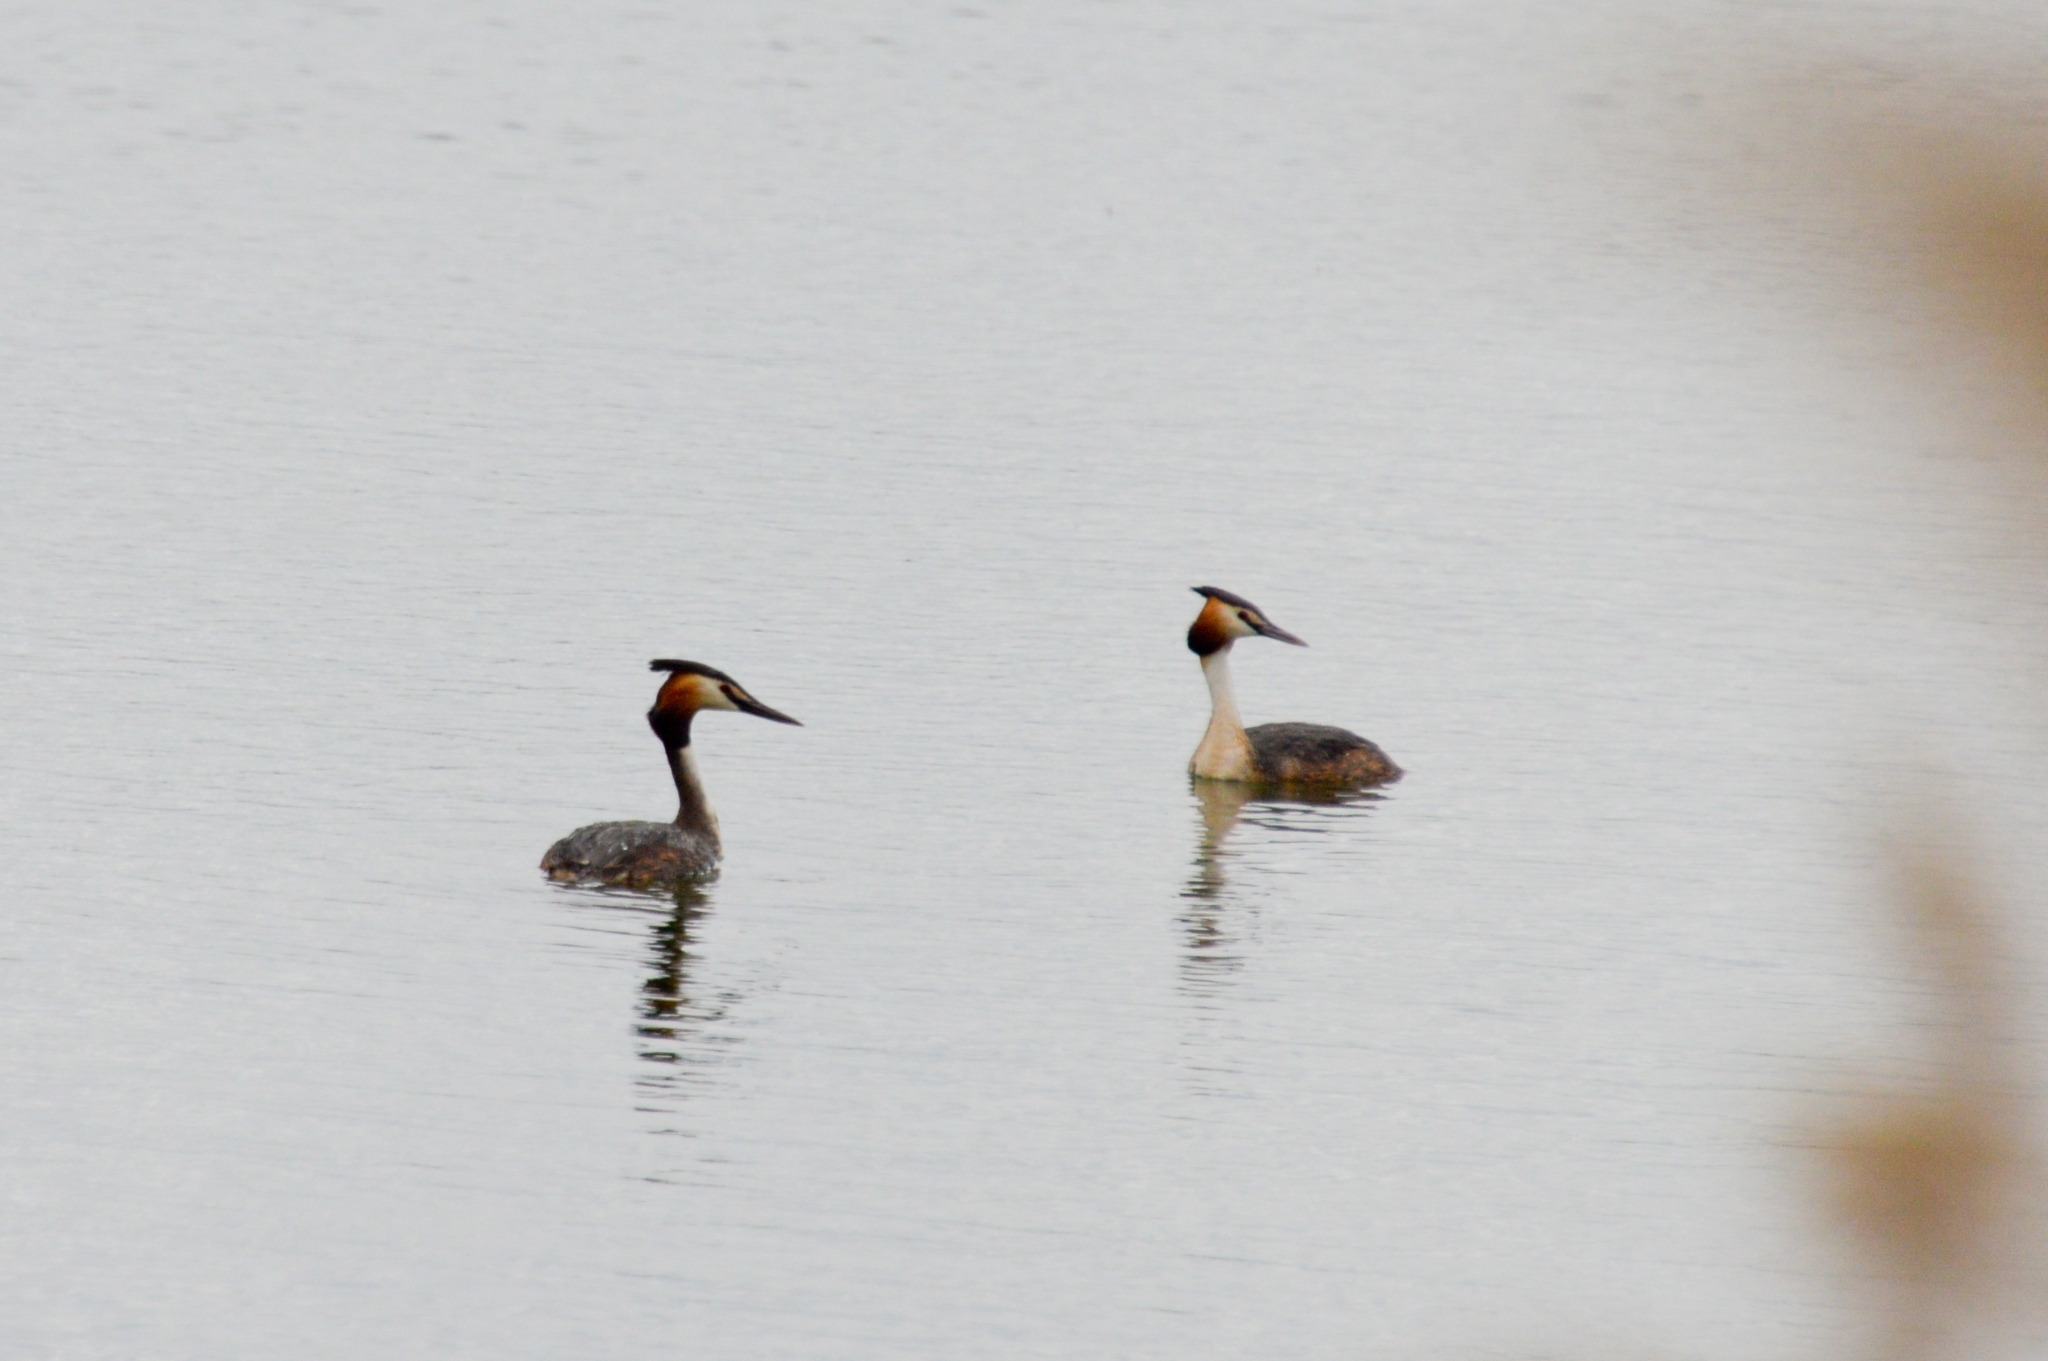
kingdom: Animalia
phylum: Chordata
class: Aves
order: Podicipediformes
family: Podicipedidae
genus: Podiceps
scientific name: Podiceps cristatus
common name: Great crested grebe
